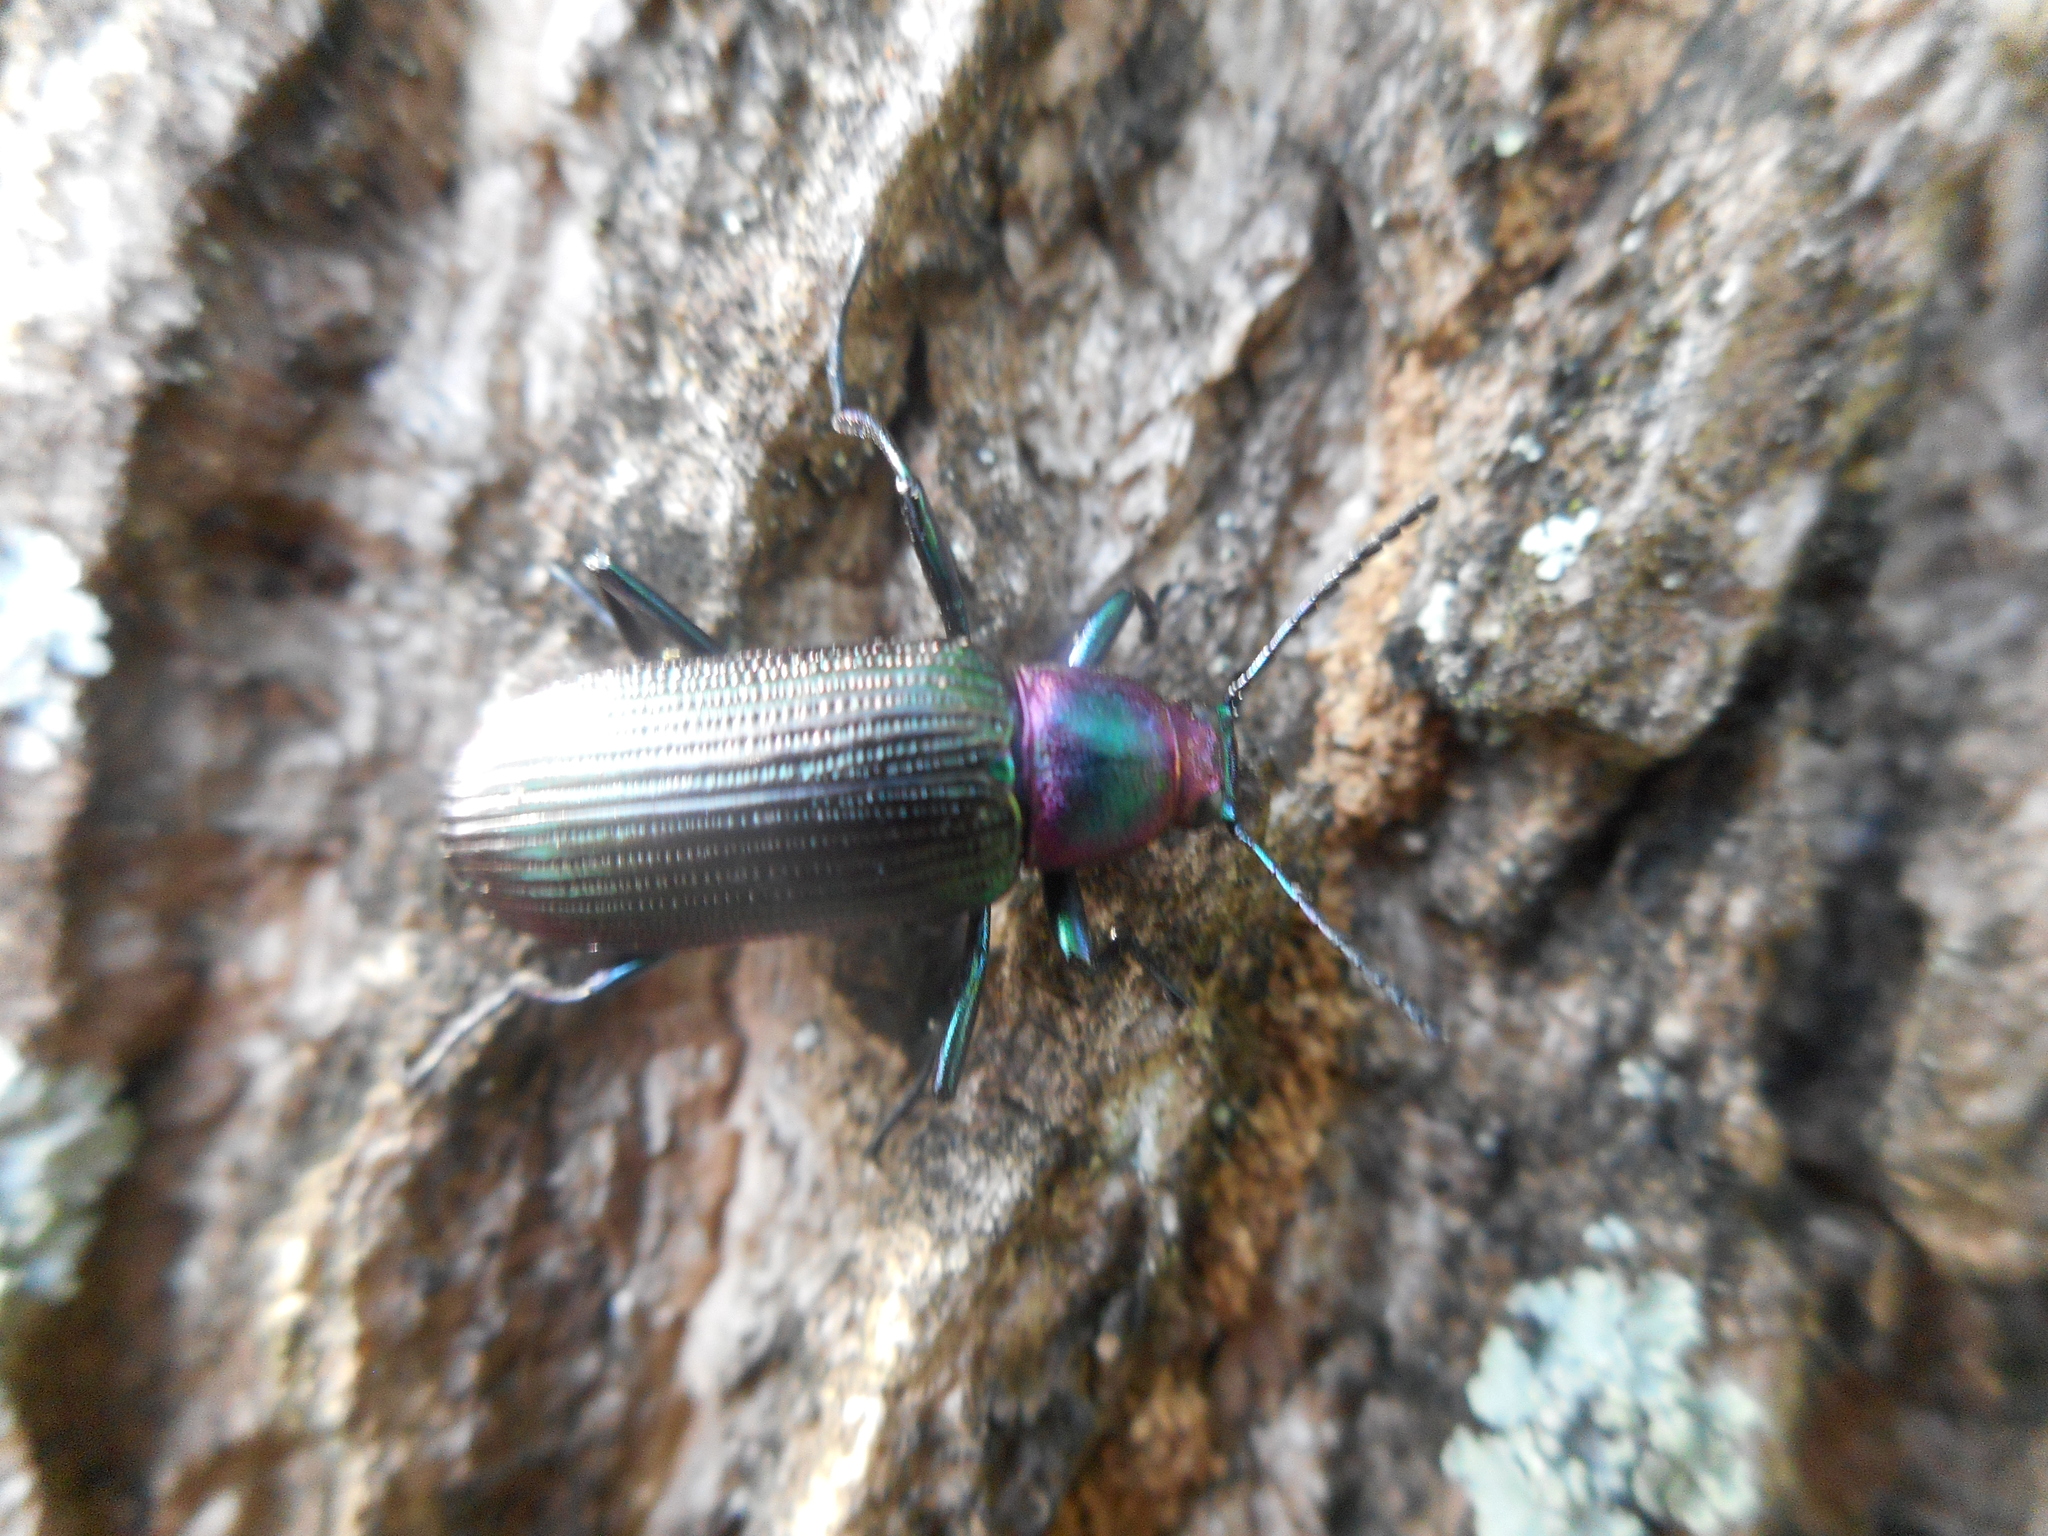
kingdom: Animalia
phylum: Arthropoda
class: Insecta
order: Coleoptera
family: Tenebrionidae
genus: Strongylium
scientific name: Strongylium auratum
